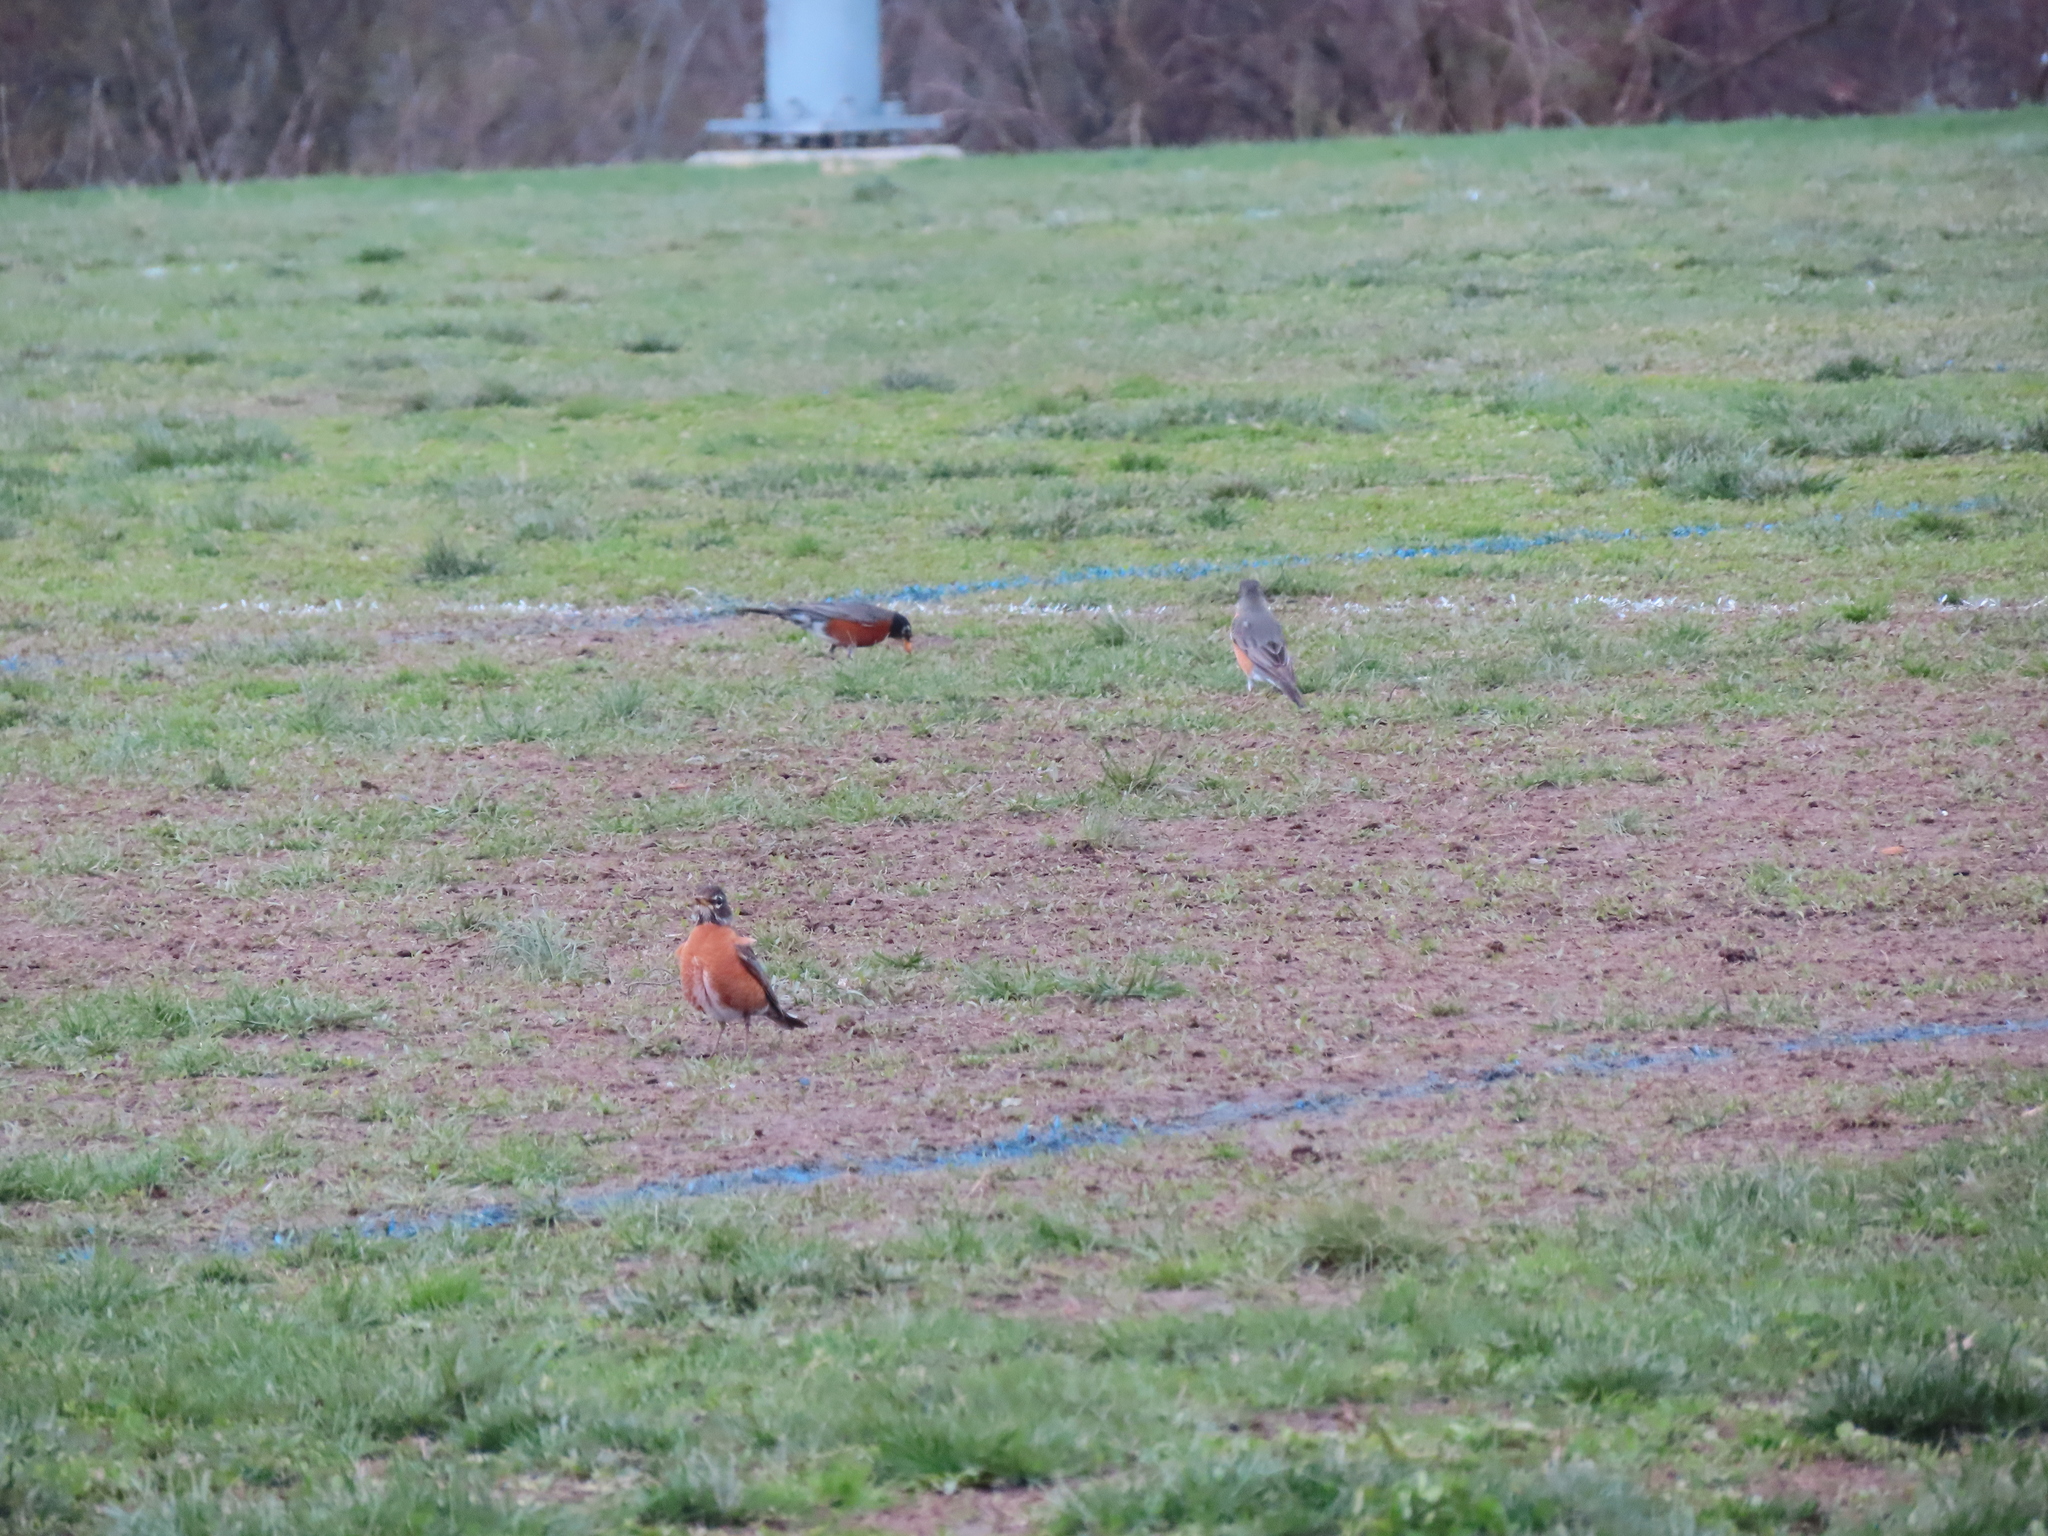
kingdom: Animalia
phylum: Chordata
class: Aves
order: Passeriformes
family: Turdidae
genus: Turdus
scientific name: Turdus migratorius
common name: American robin
